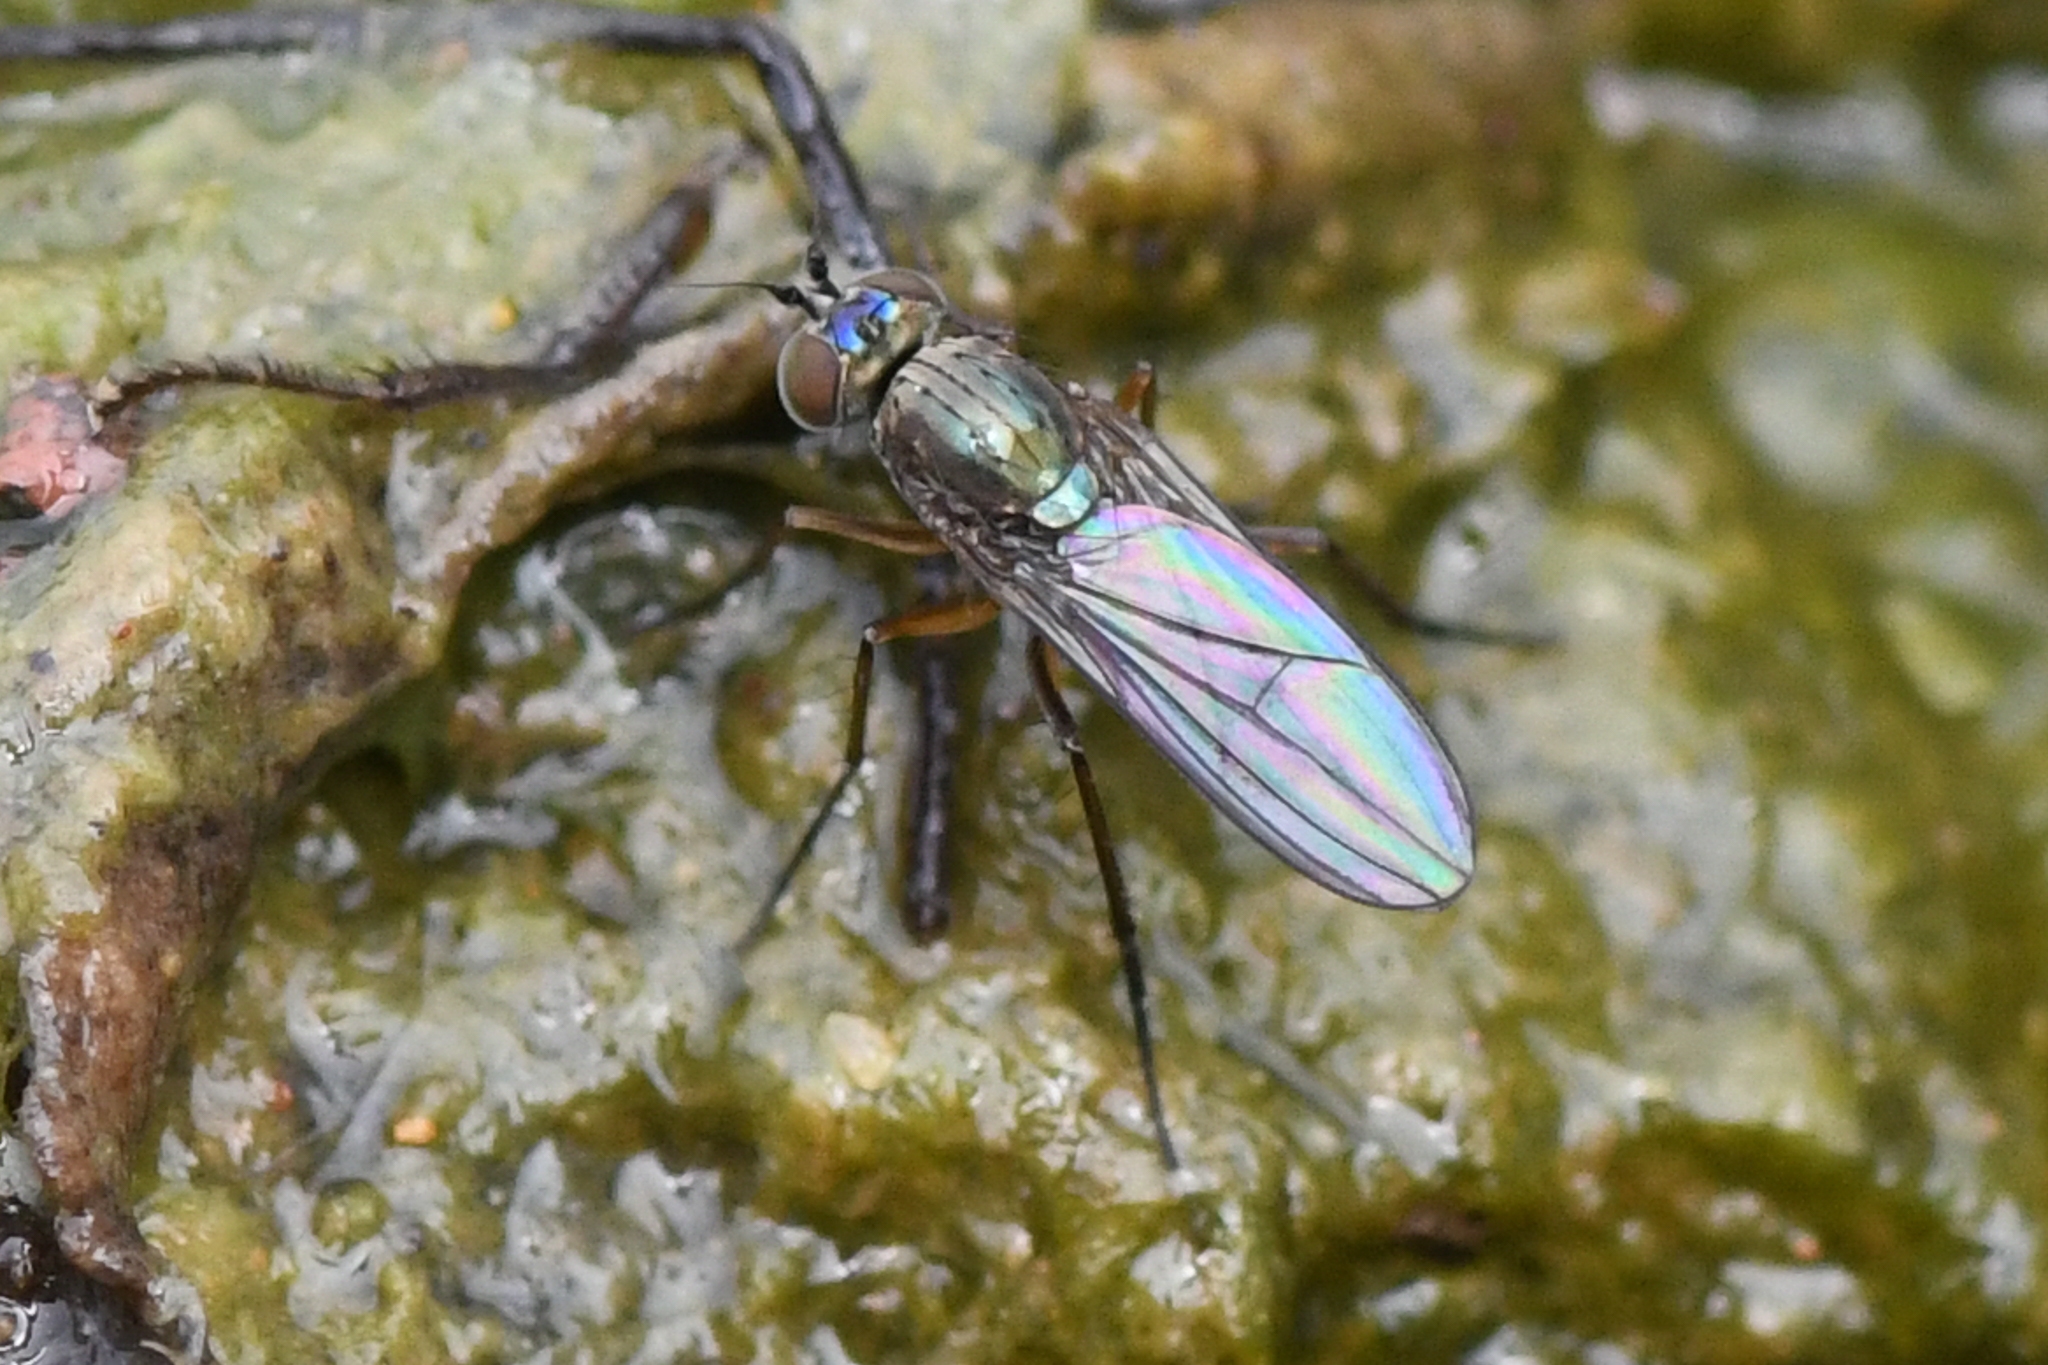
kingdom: Animalia
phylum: Arthropoda
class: Insecta
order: Diptera
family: Dolichopodidae
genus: Syntormon
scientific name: Syntormon flexibile
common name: Long-legged fly
